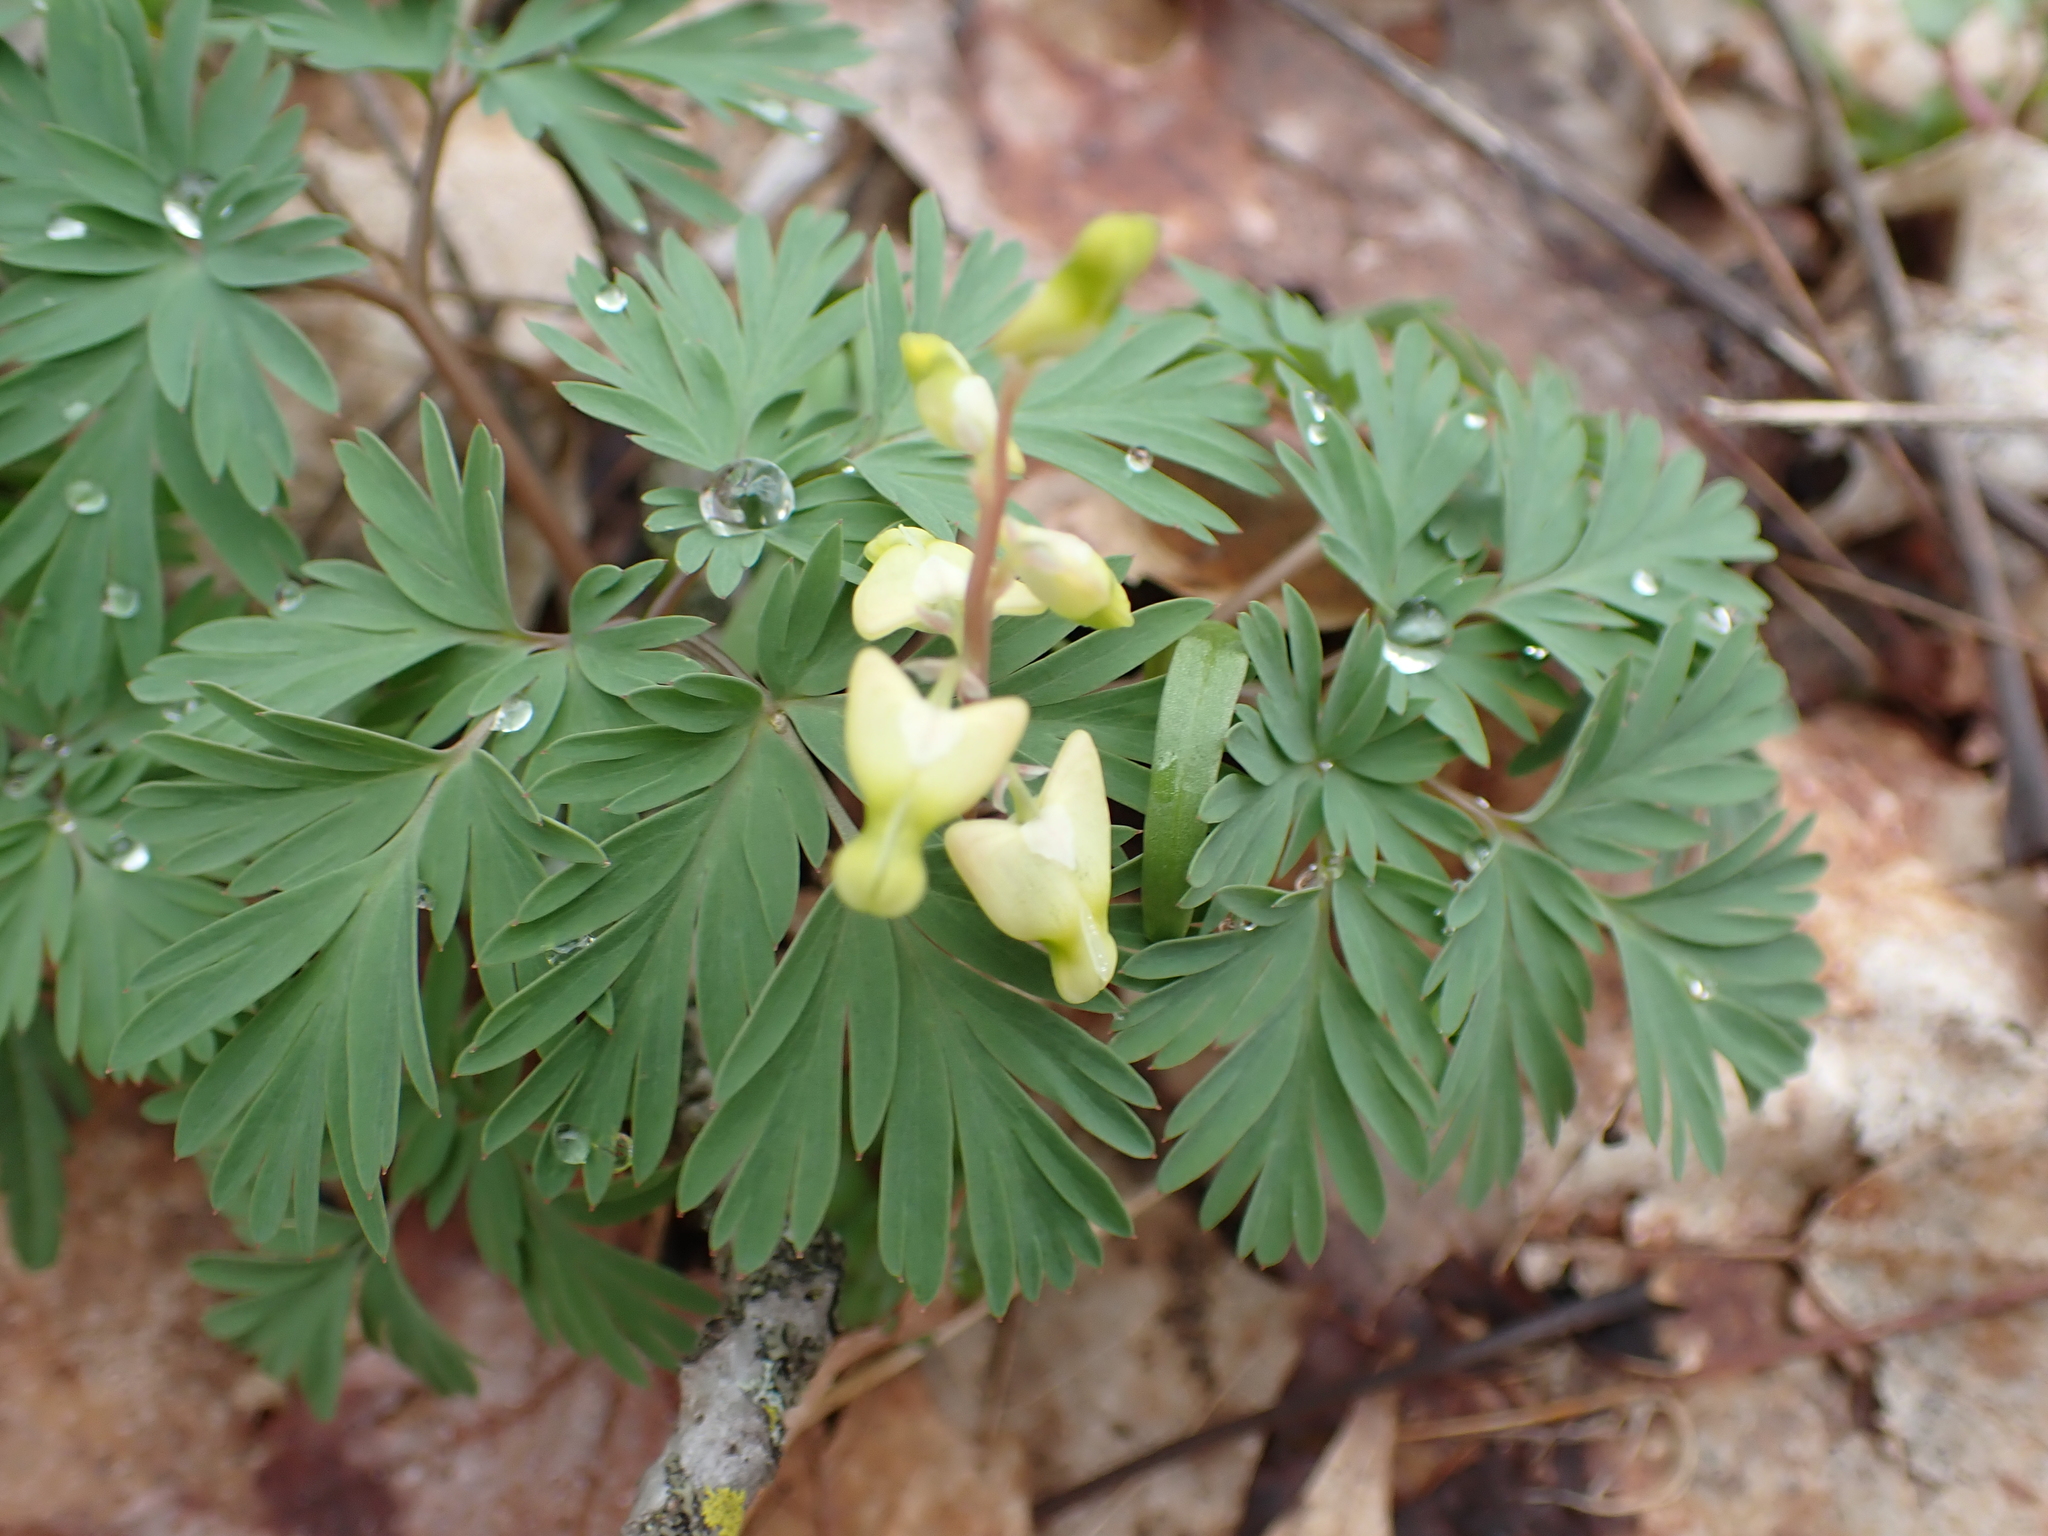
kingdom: Plantae
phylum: Tracheophyta
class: Magnoliopsida
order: Ranunculales
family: Papaveraceae
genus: Dicentra
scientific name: Dicentra cucullaria
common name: Dutchman's breeches
